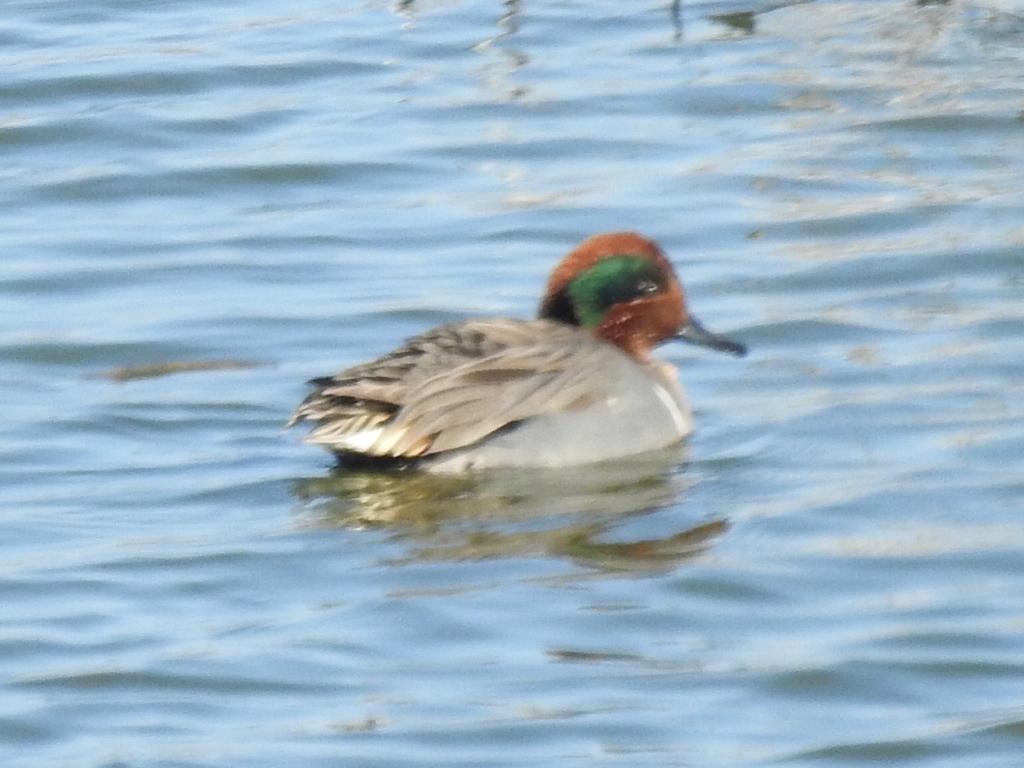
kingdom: Animalia
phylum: Chordata
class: Aves
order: Anseriformes
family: Anatidae
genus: Anas
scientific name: Anas crecca
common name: Eurasian teal
